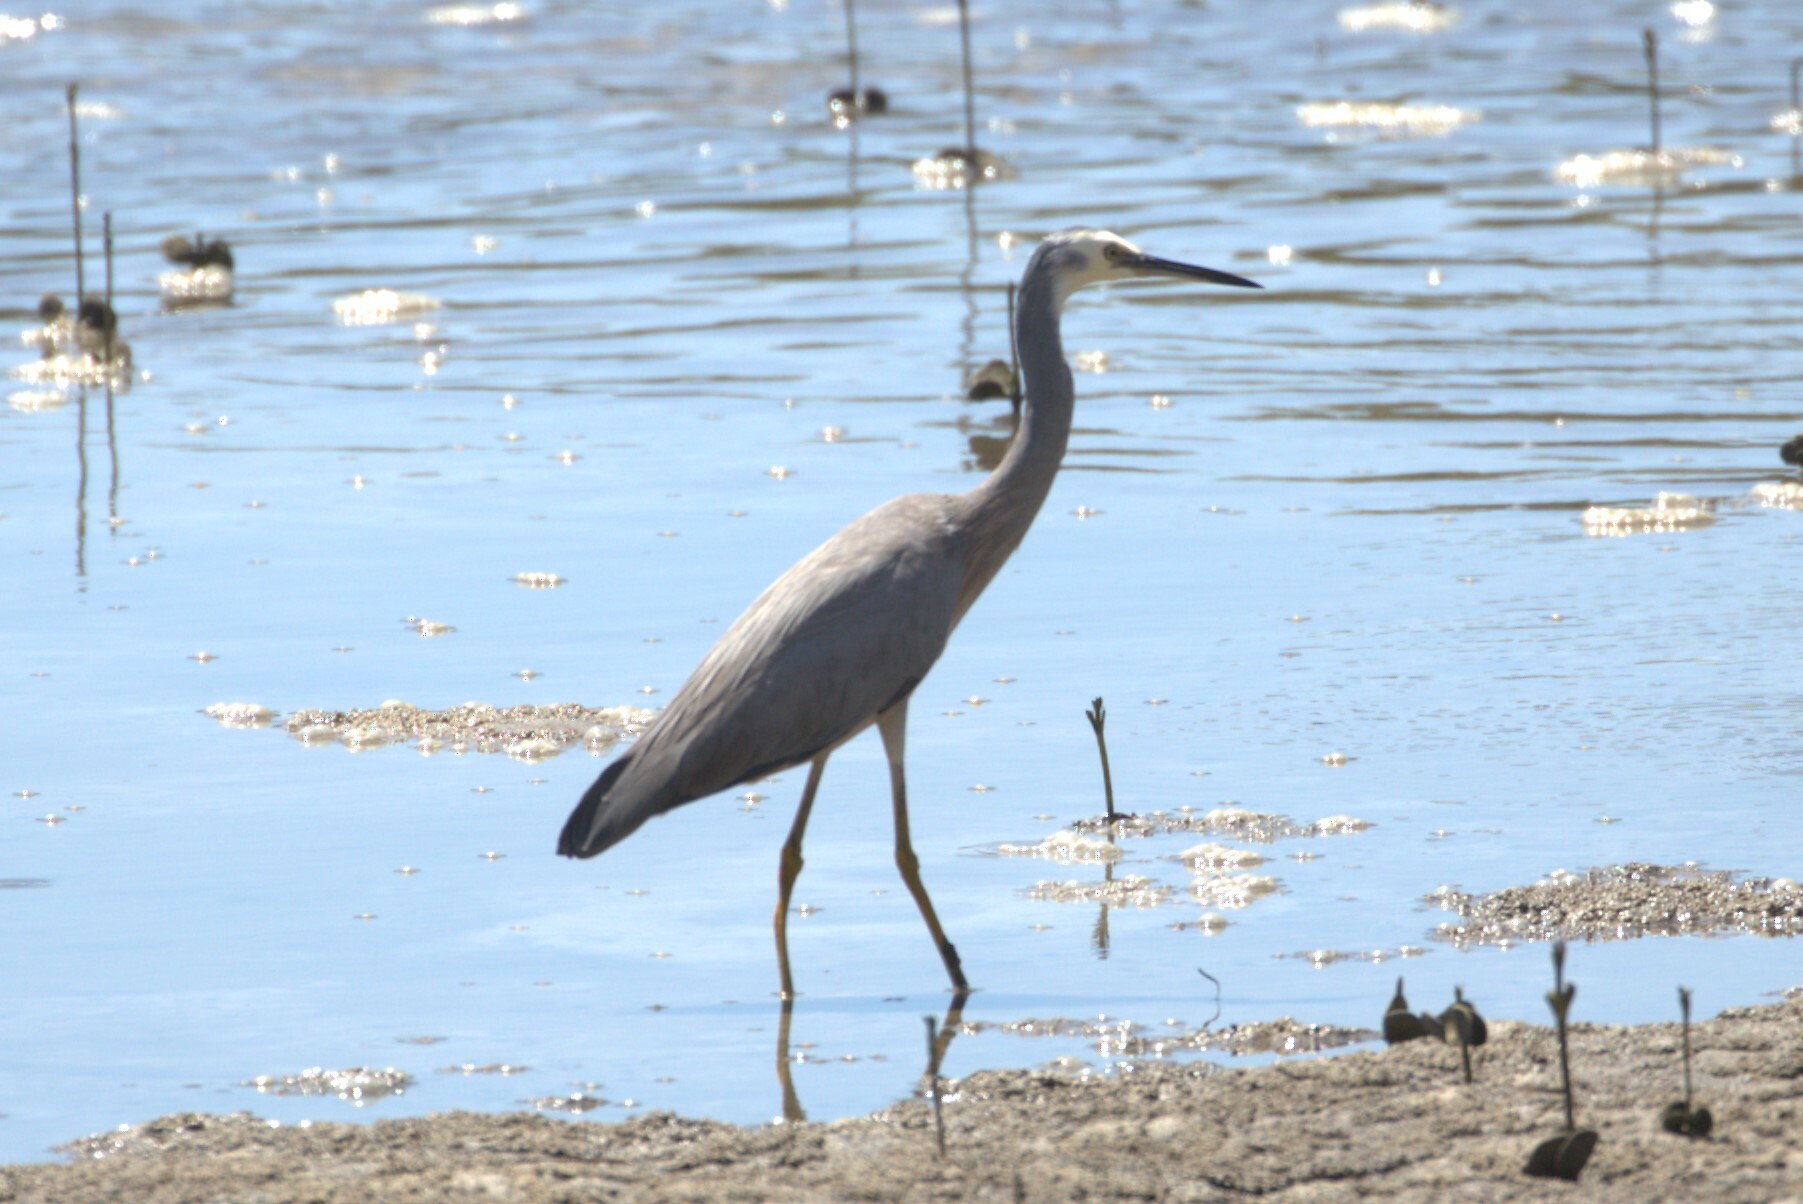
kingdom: Animalia
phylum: Chordata
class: Aves
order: Pelecaniformes
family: Ardeidae
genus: Egretta
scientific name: Egretta novaehollandiae
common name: White-faced heron
